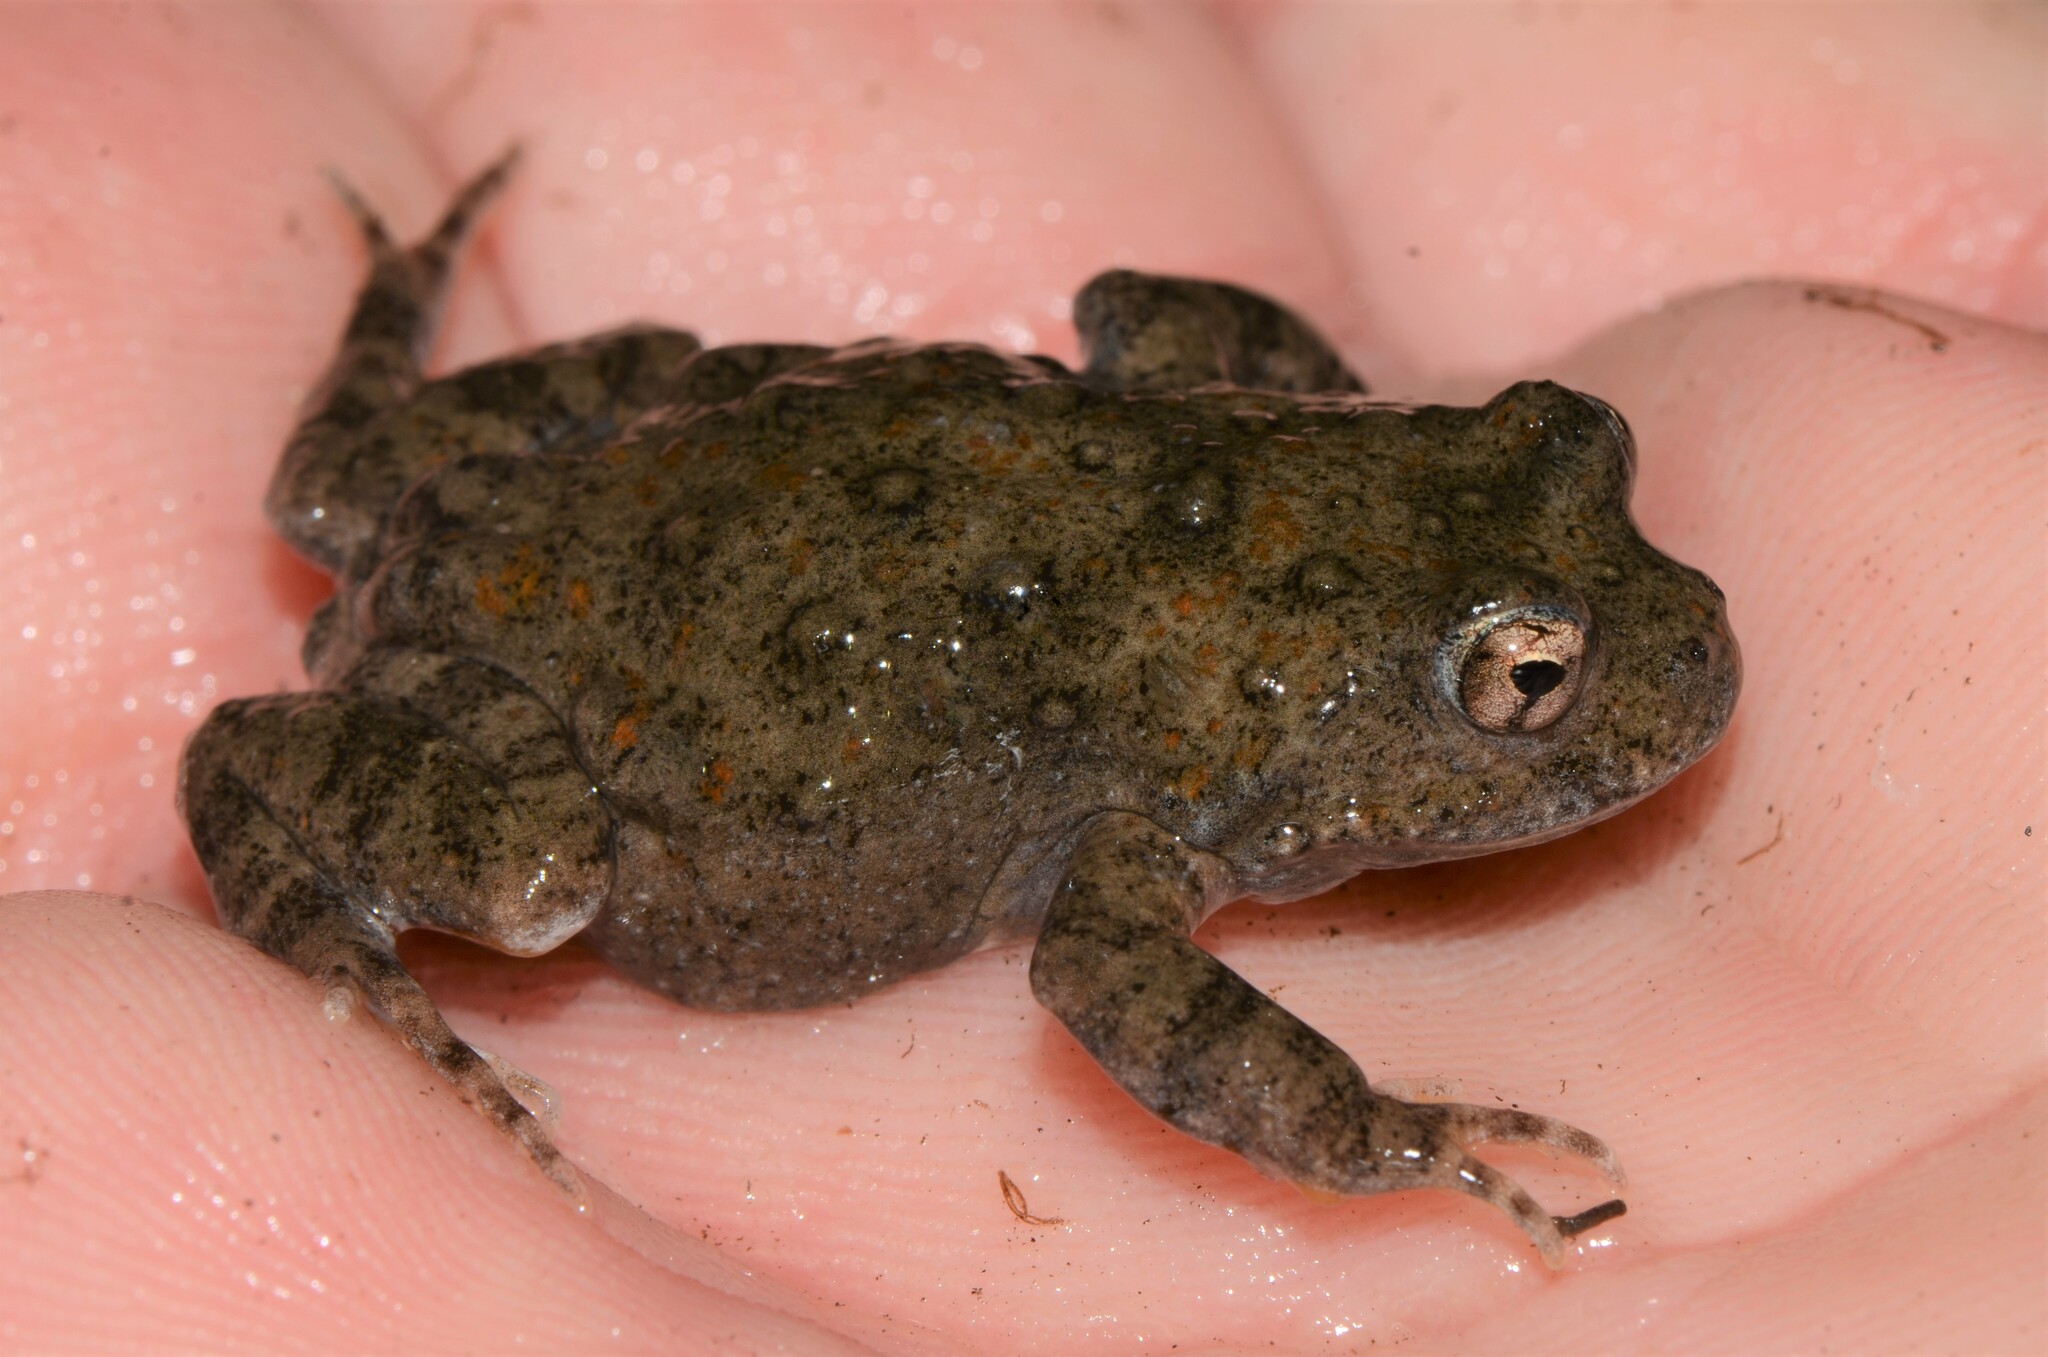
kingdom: Animalia
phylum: Chordata
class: Amphibia
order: Anura
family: Pyxicephalidae
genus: Cacosternum
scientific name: Cacosternum capense
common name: Cape dainty frog
